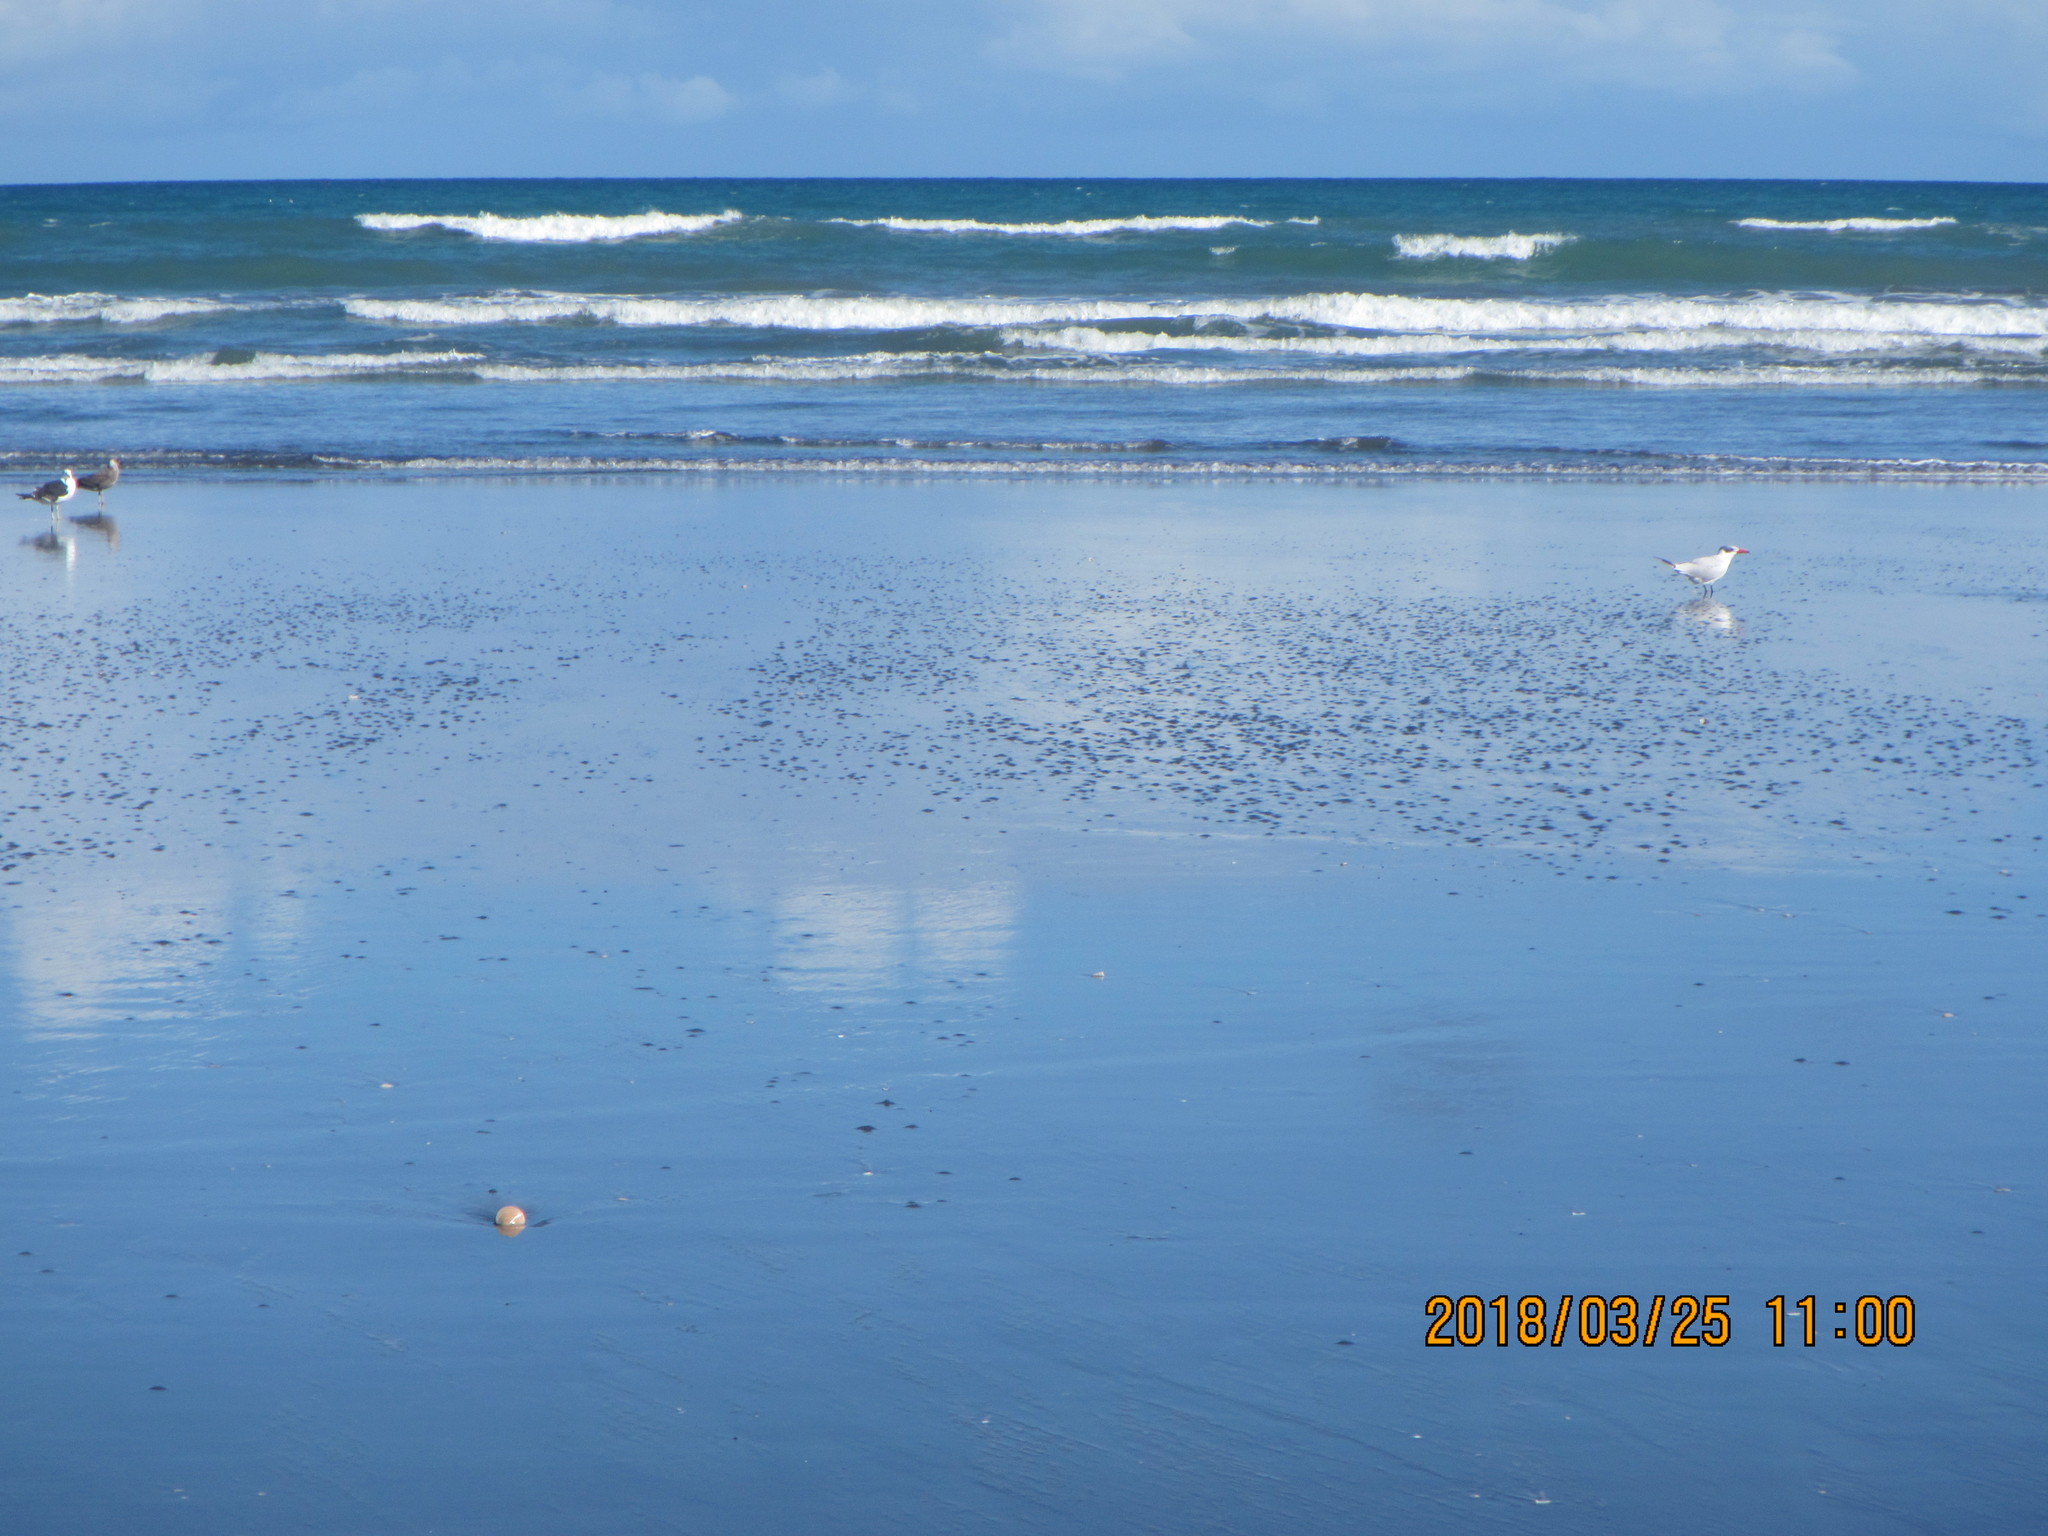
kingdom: Animalia
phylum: Chordata
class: Aves
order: Charadriiformes
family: Laridae
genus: Hydroprogne
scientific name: Hydroprogne caspia
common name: Caspian tern
